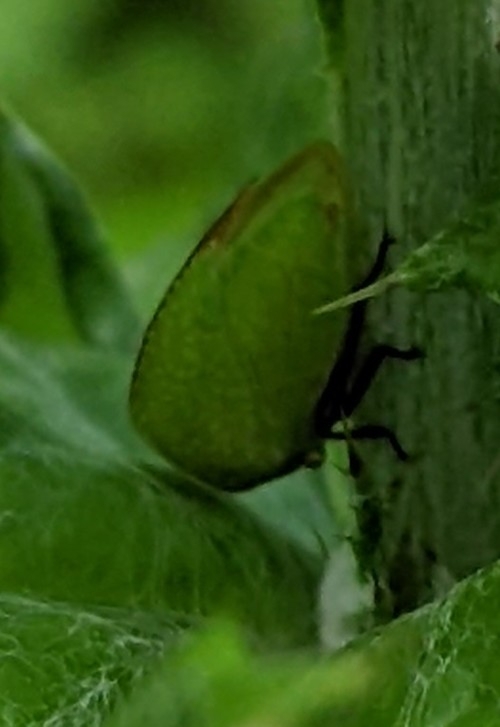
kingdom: Animalia
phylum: Arthropoda
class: Insecta
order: Hemiptera
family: Membracidae
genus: Tortistilus
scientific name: Tortistilus inermis
